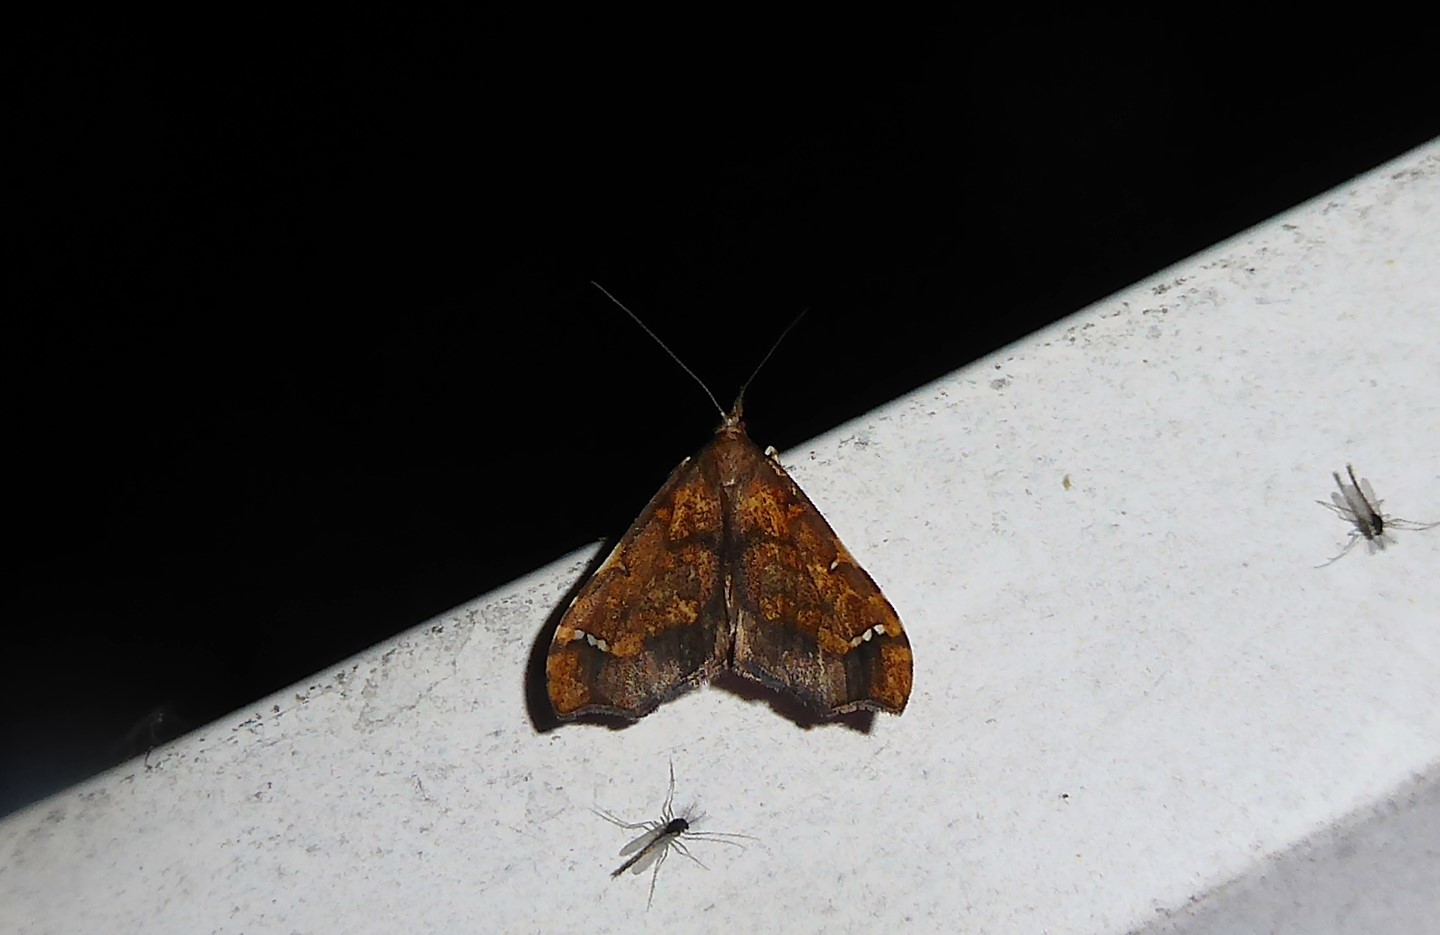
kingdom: Animalia
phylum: Arthropoda
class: Insecta
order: Lepidoptera
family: Crambidae
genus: Deana
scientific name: Deana hybreasalis
